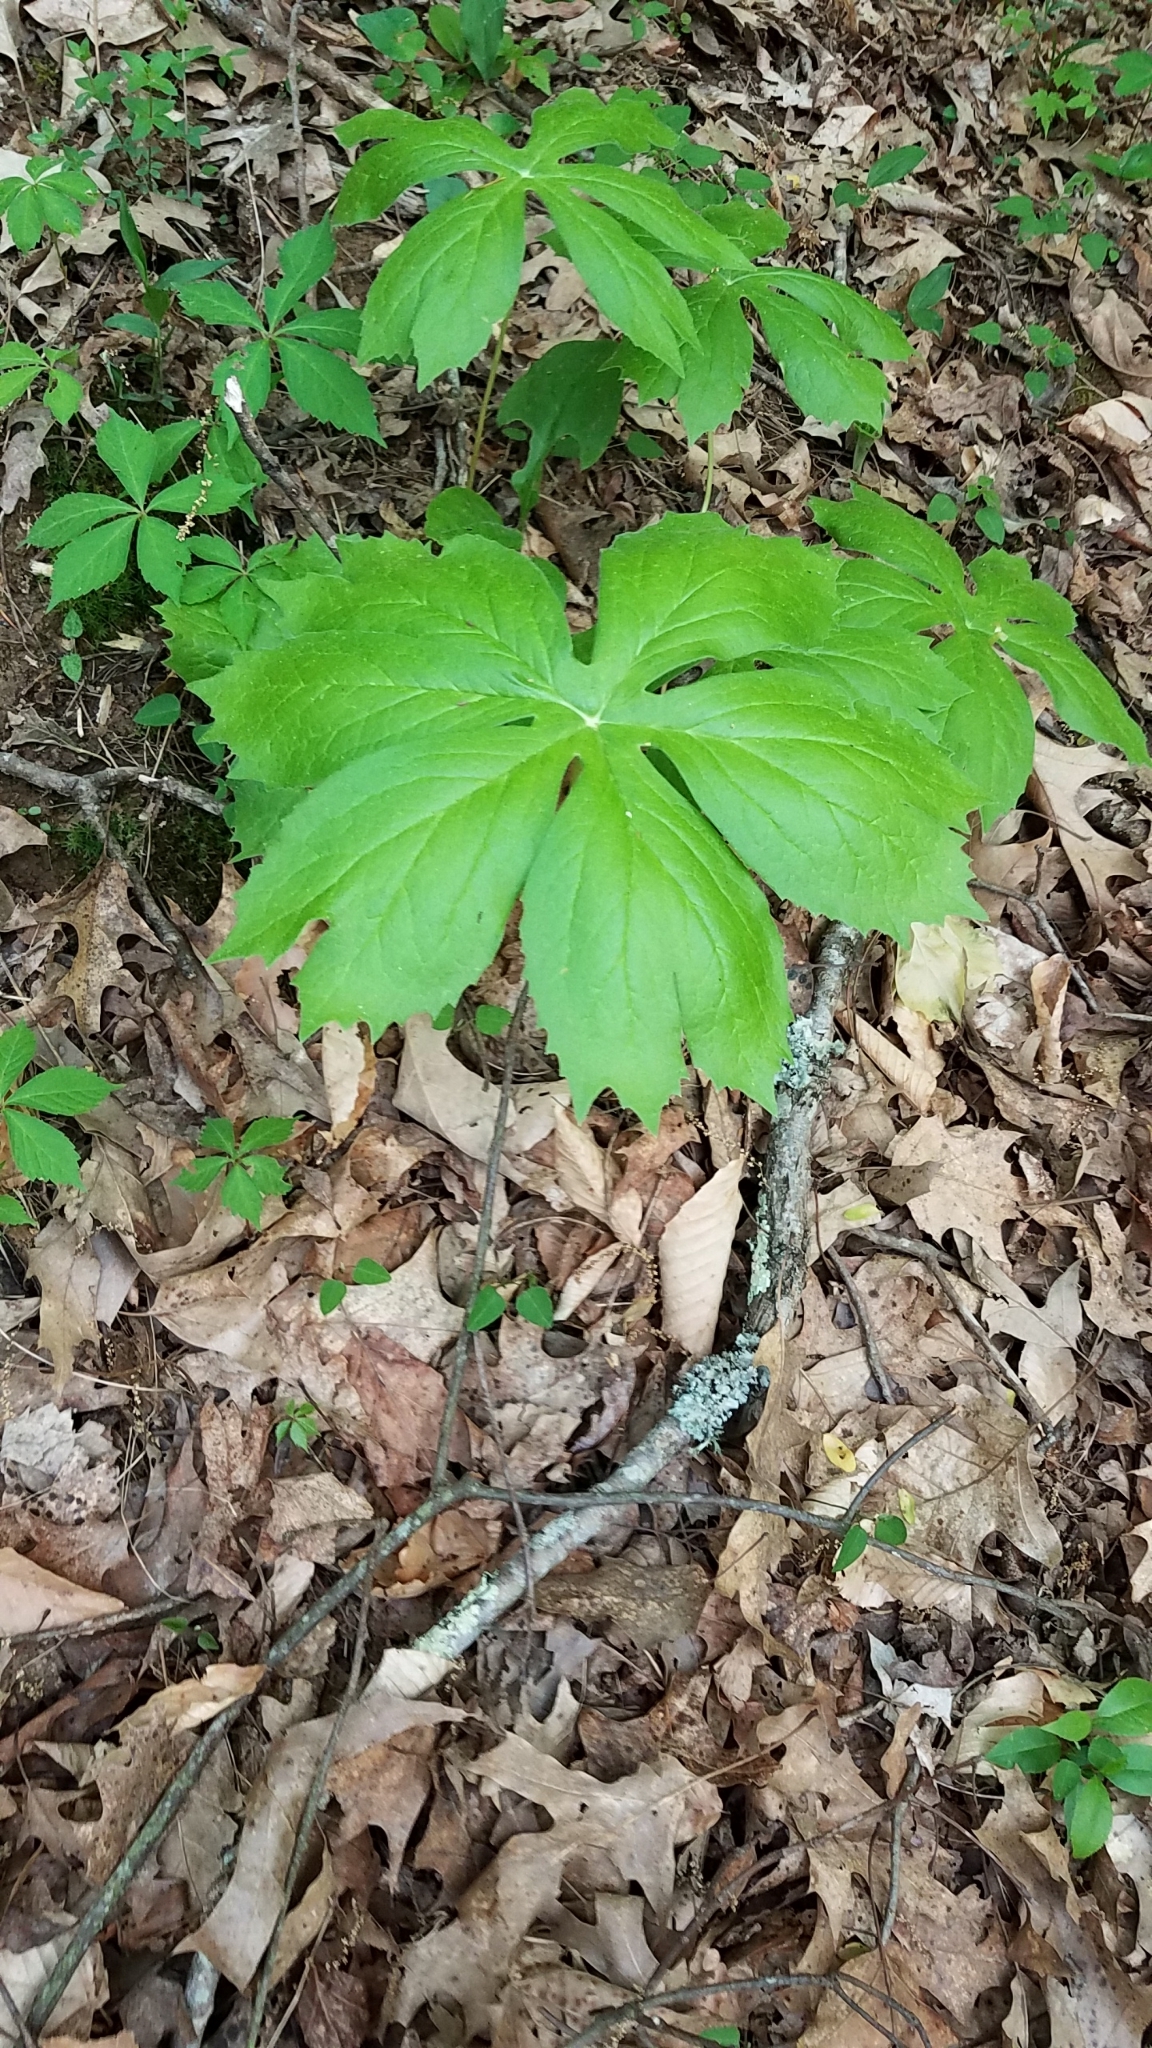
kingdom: Plantae
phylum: Tracheophyta
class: Magnoliopsida
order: Ranunculales
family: Berberidaceae
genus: Podophyllum
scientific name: Podophyllum peltatum
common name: Wild mandrake
